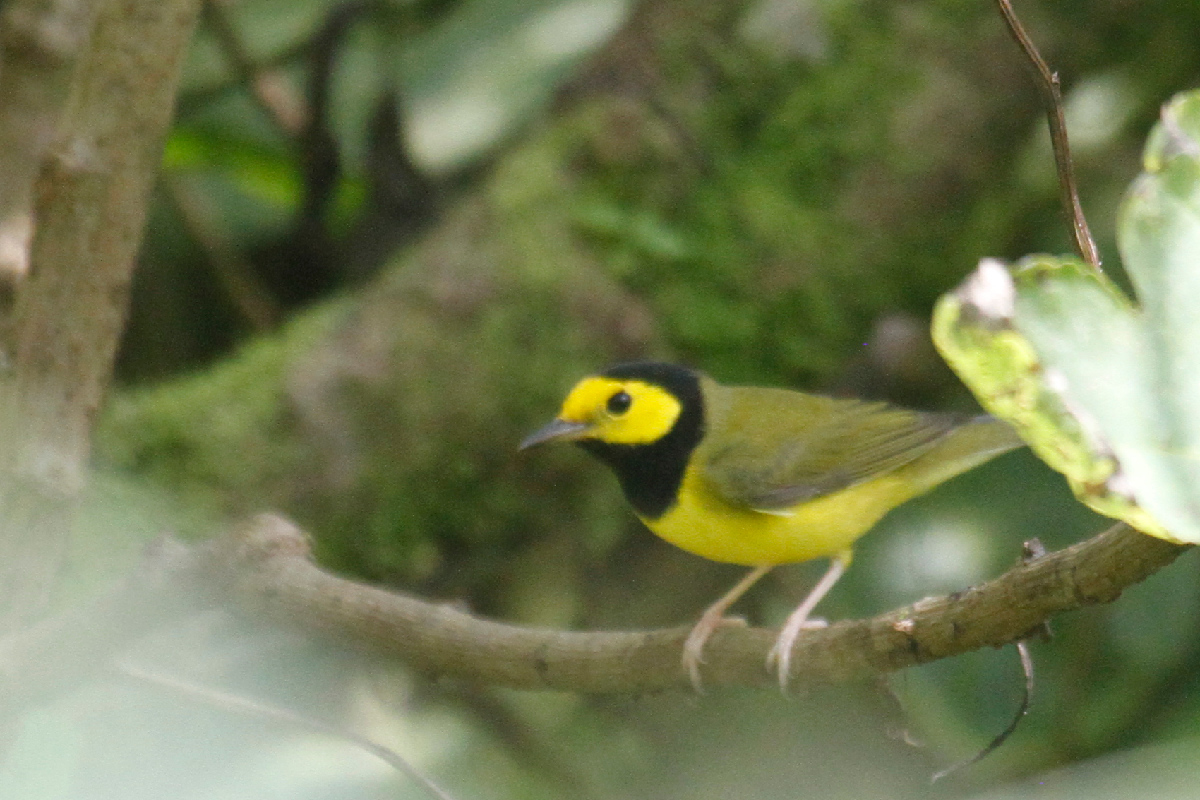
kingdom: Animalia
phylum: Chordata
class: Aves
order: Passeriformes
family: Parulidae
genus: Setophaga
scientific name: Setophaga citrina
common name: Hooded warbler
